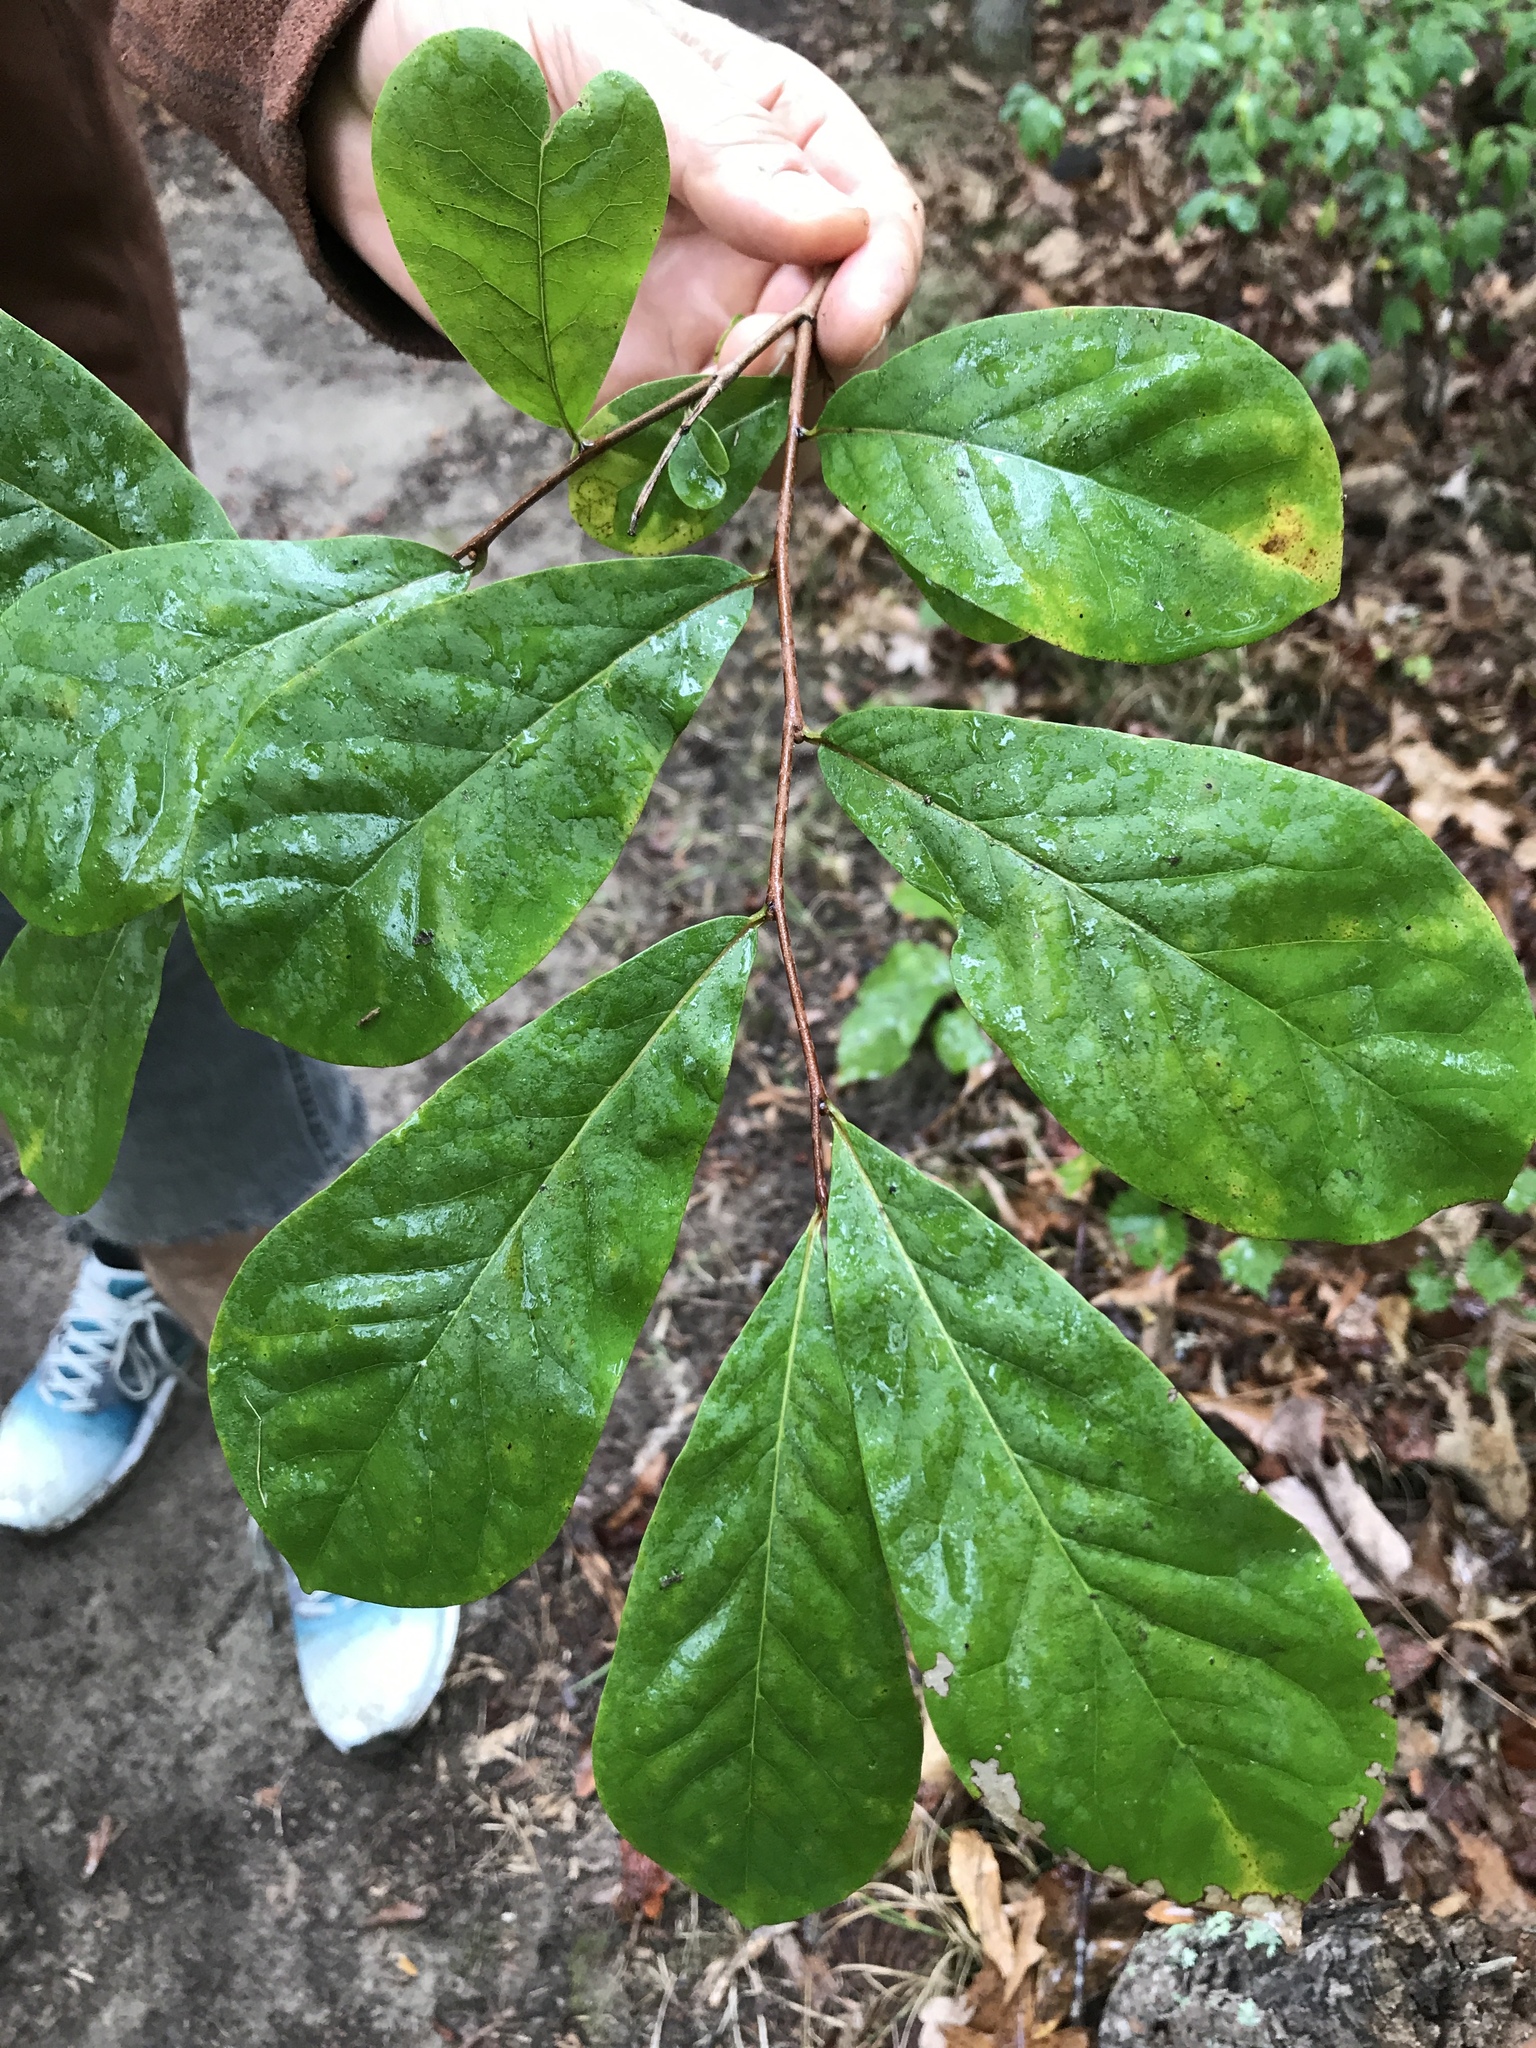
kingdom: Plantae
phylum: Tracheophyta
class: Magnoliopsida
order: Magnoliales
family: Annonaceae
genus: Asimina
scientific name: Asimina parviflora
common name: Dwarf pawpaw
